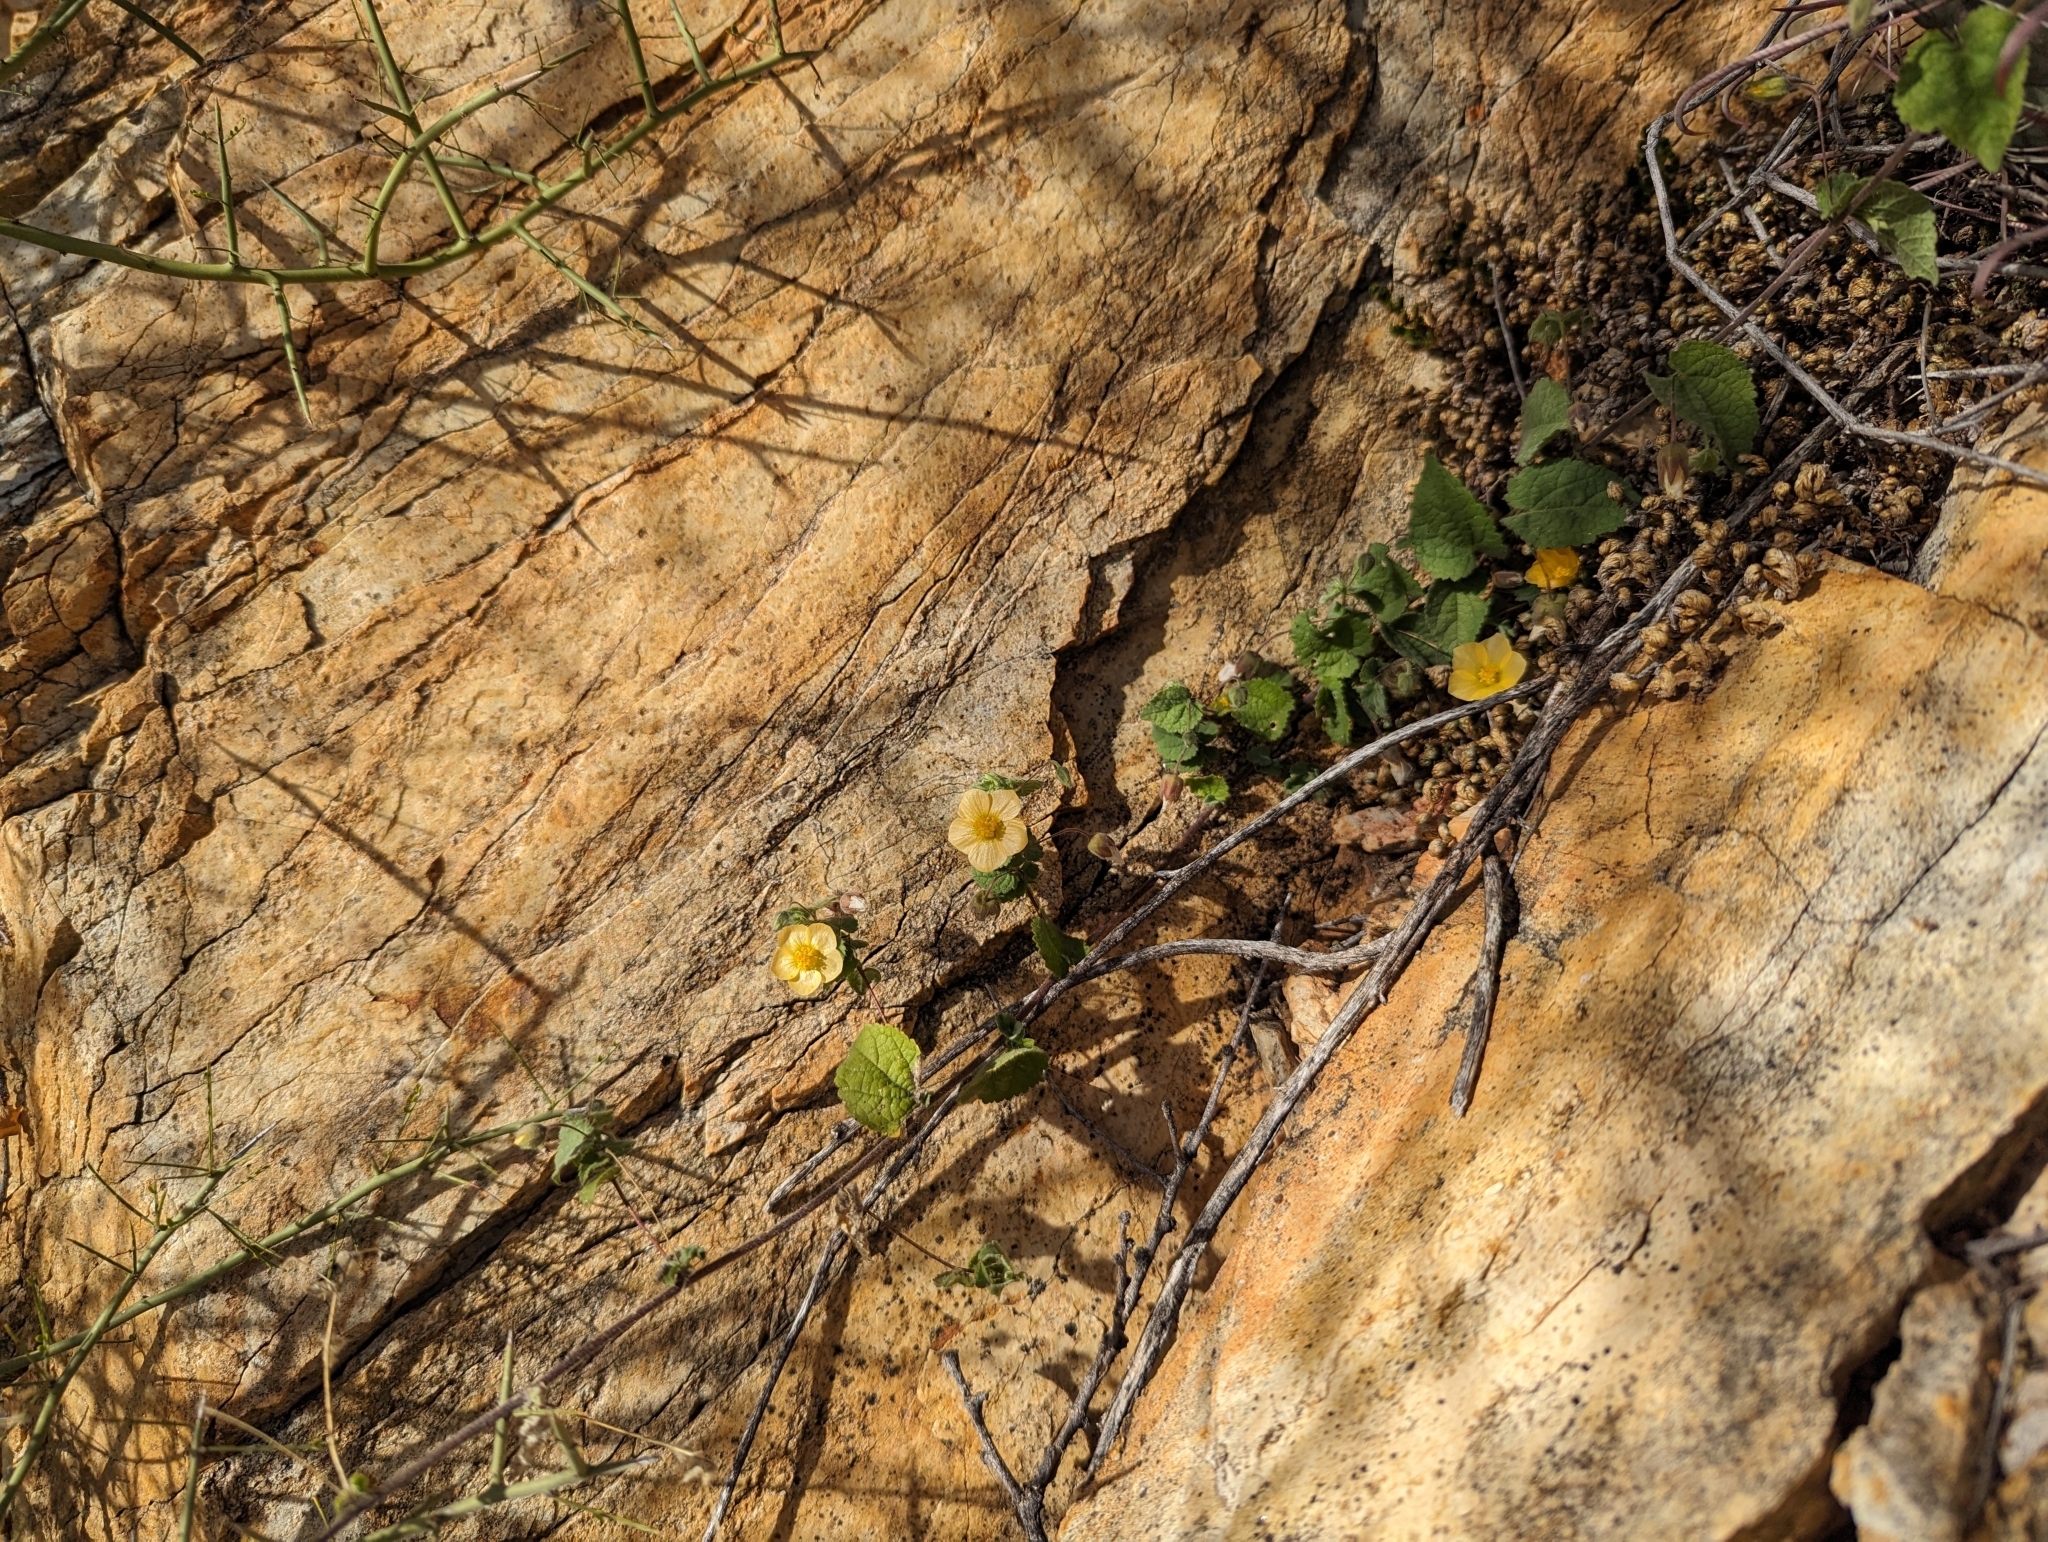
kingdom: Plantae
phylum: Tracheophyta
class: Magnoliopsida
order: Malvales
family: Malvaceae
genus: Herissantia
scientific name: Herissantia crispa
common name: Bladdermallow
